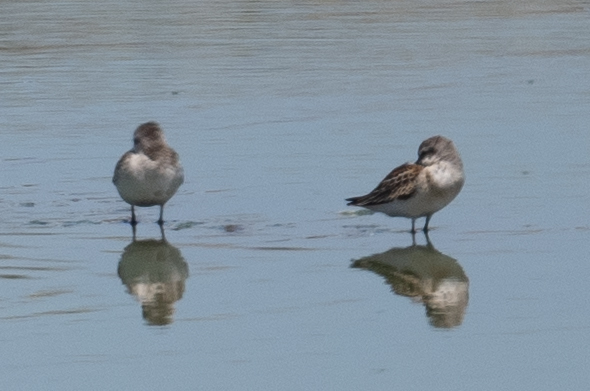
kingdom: Animalia
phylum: Chordata
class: Aves
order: Charadriiformes
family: Scolopacidae
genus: Calidris
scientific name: Calidris mauri
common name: Western sandpiper
